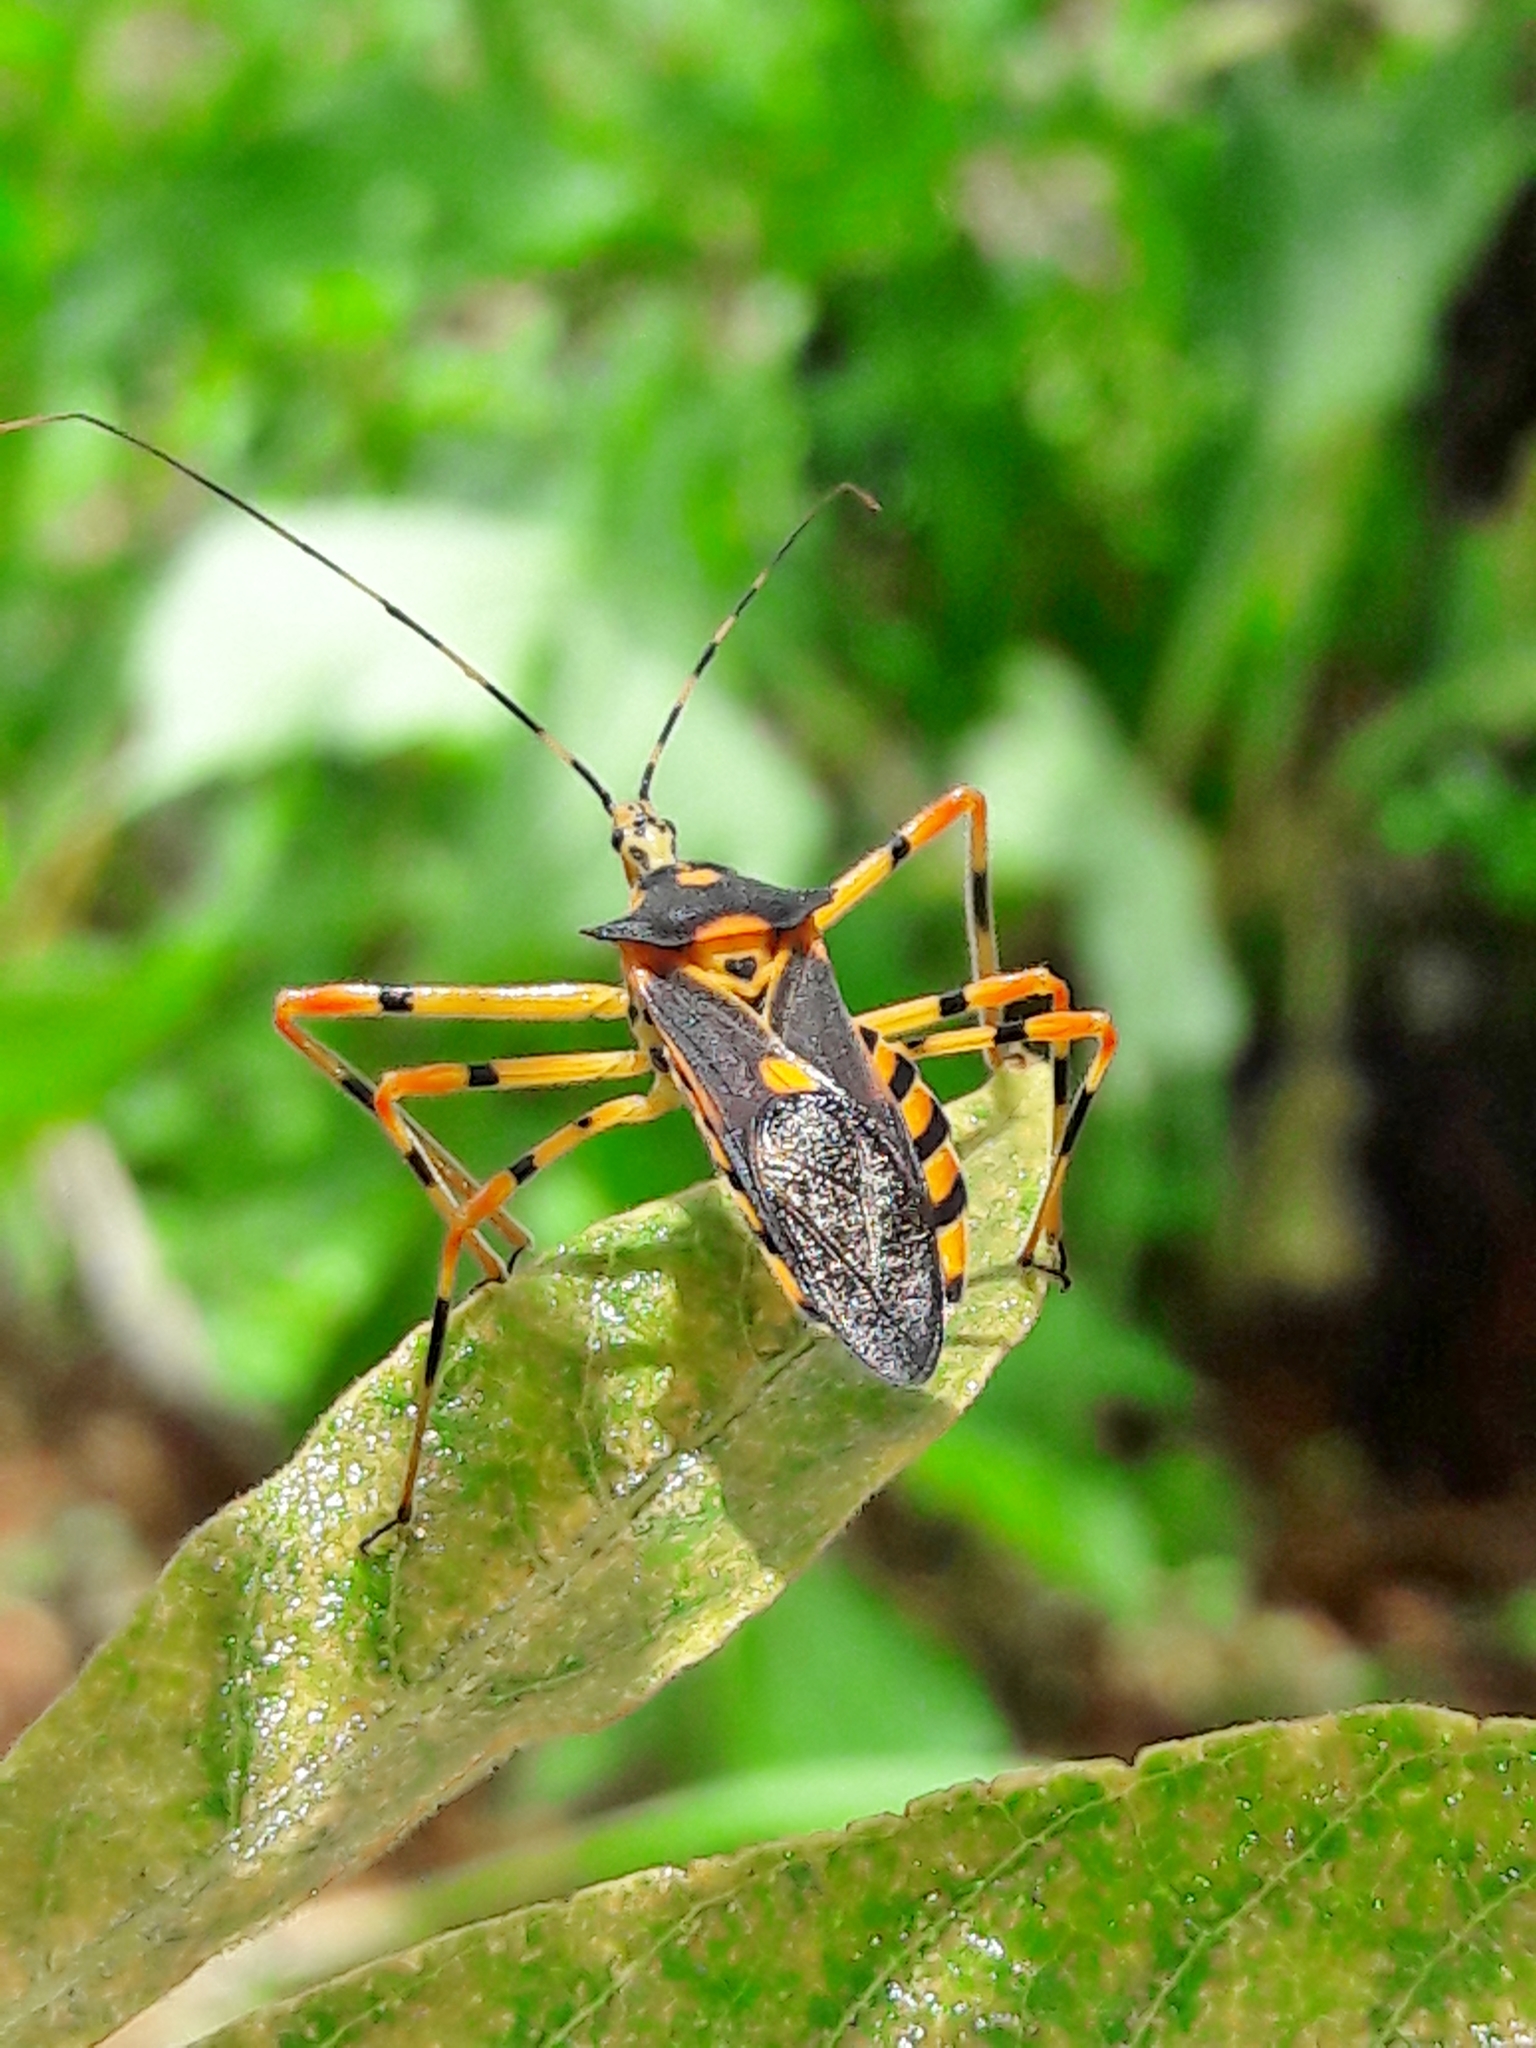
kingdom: Animalia
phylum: Arthropoda
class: Insecta
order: Hemiptera
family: Reduviidae
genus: Zelus
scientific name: Zelus armillatus
